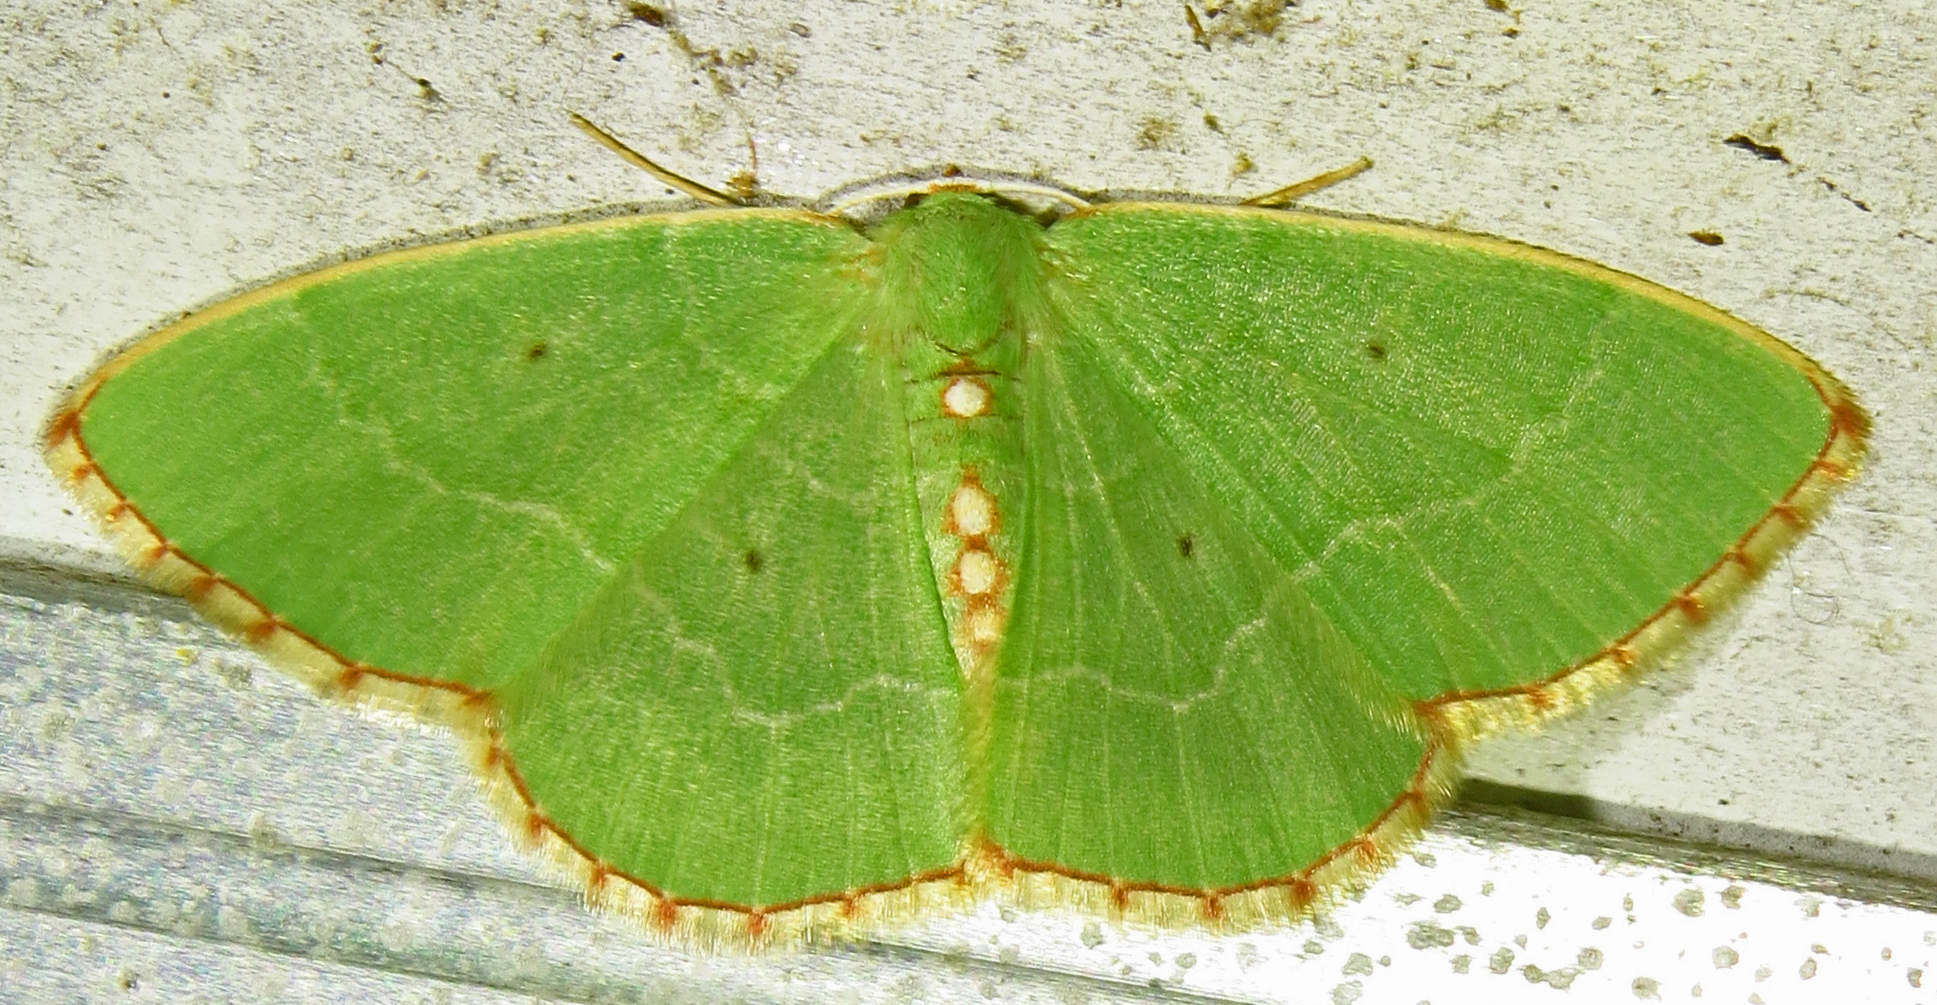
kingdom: Animalia
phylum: Arthropoda
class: Insecta
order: Lepidoptera
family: Geometridae
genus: Nemoria
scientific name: Nemoria lixaria
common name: Red-bordered emerald
